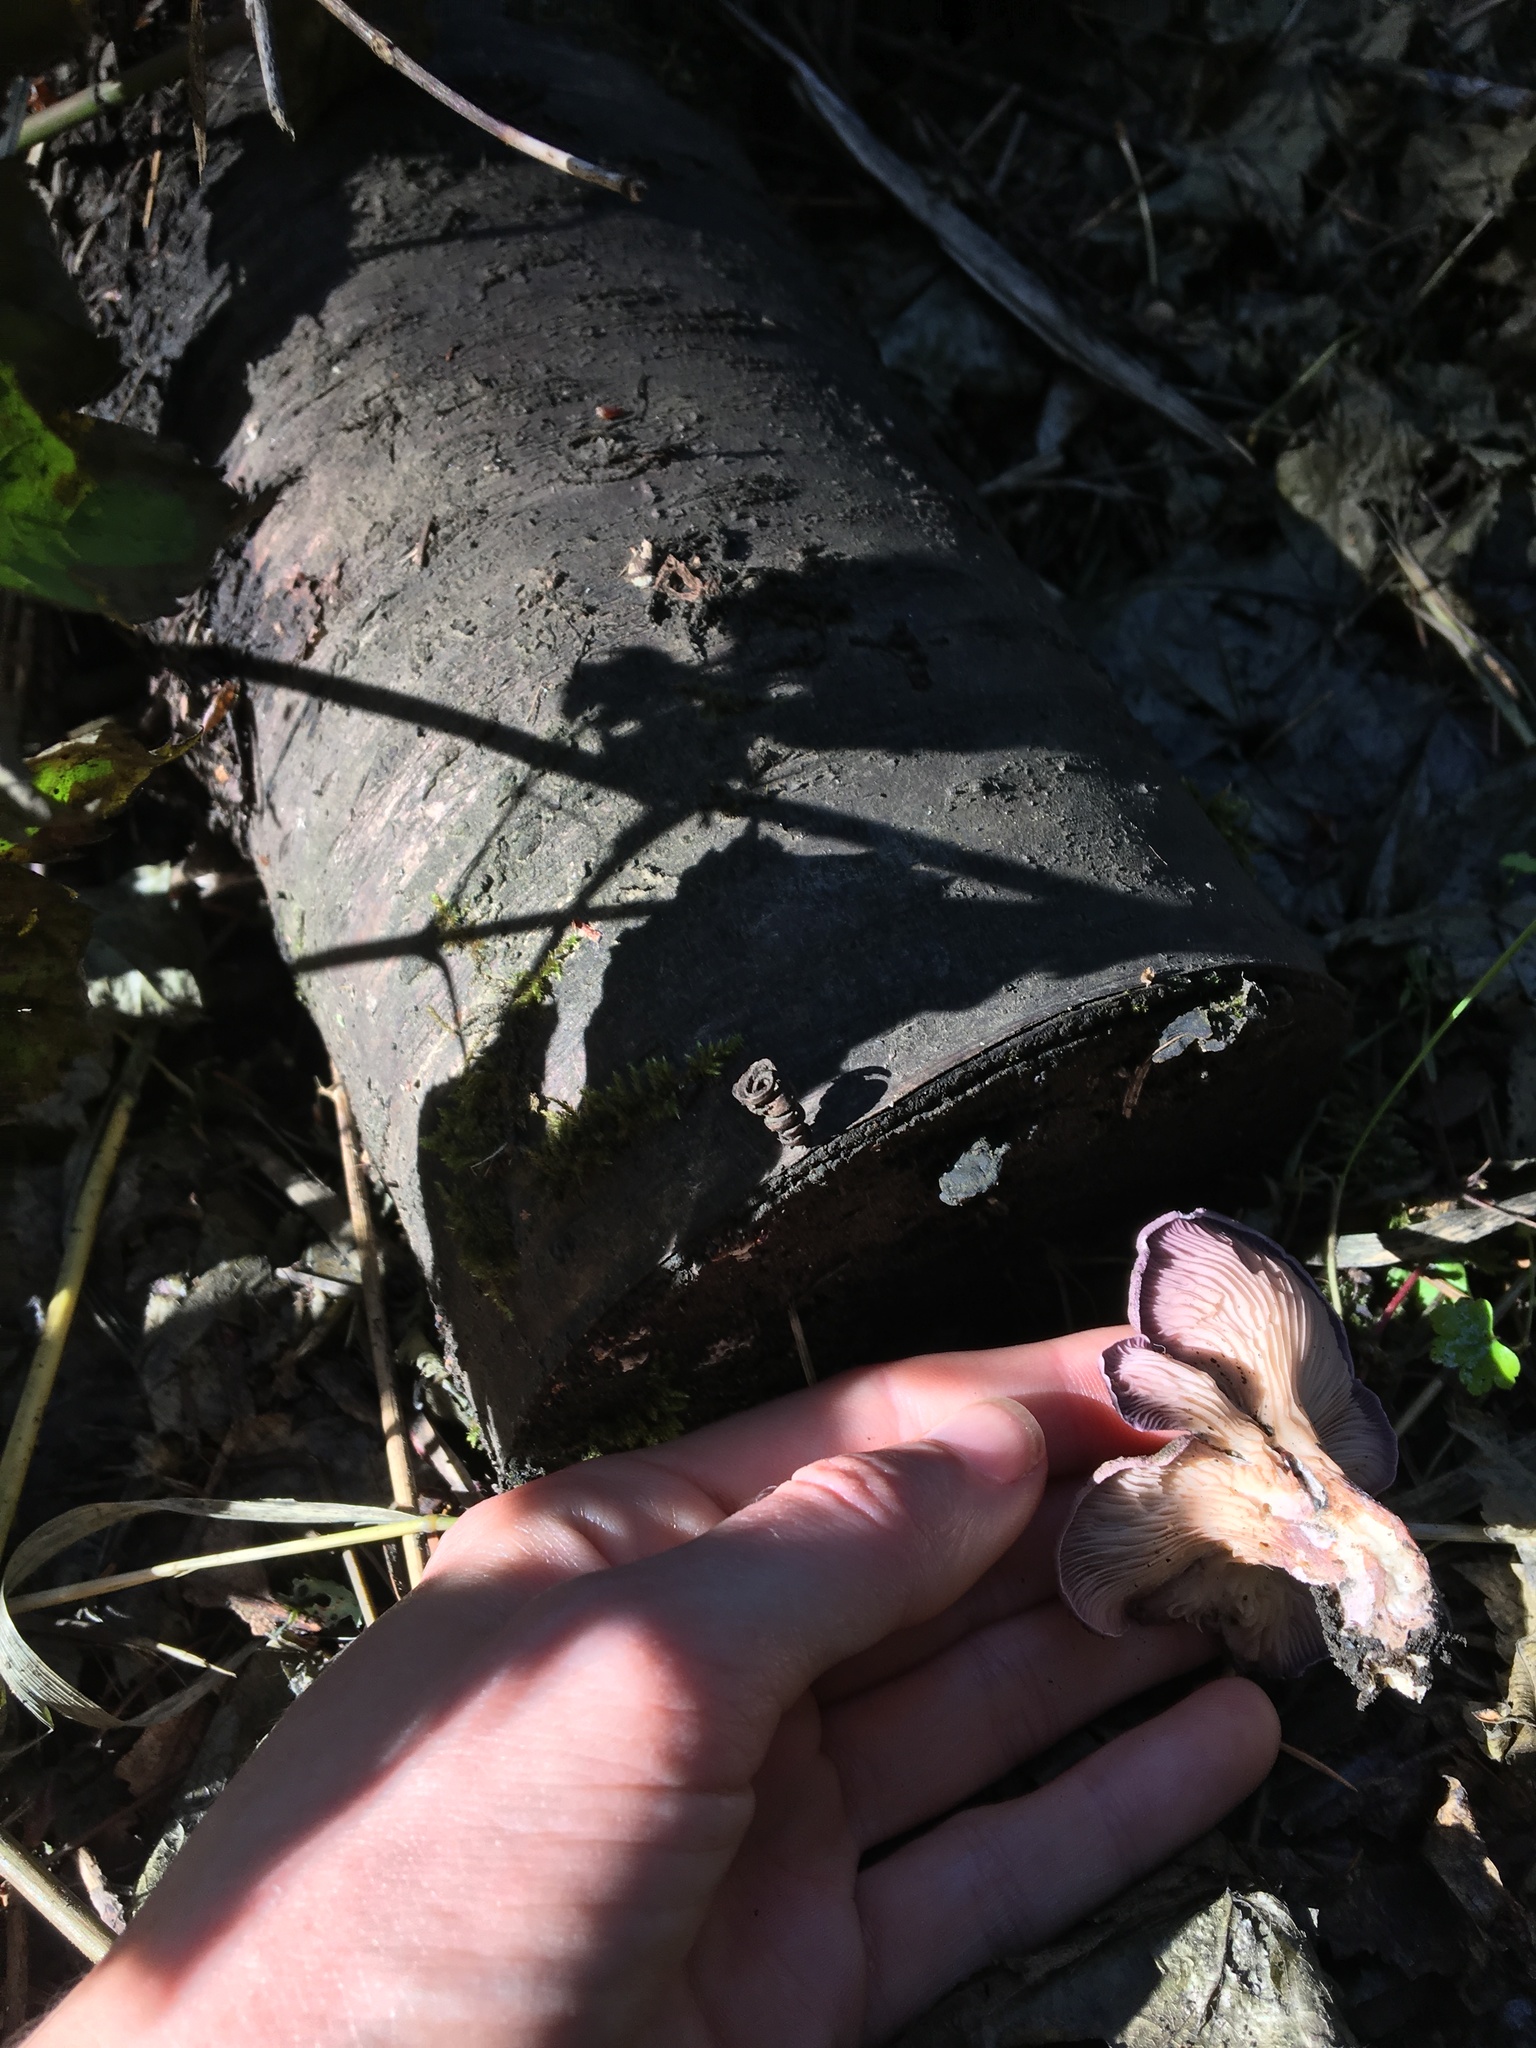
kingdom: Fungi
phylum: Basidiomycota
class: Agaricomycetes
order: Polyporales
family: Panaceae
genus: Panus
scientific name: Panus conchatus
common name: Lilac oysterling
